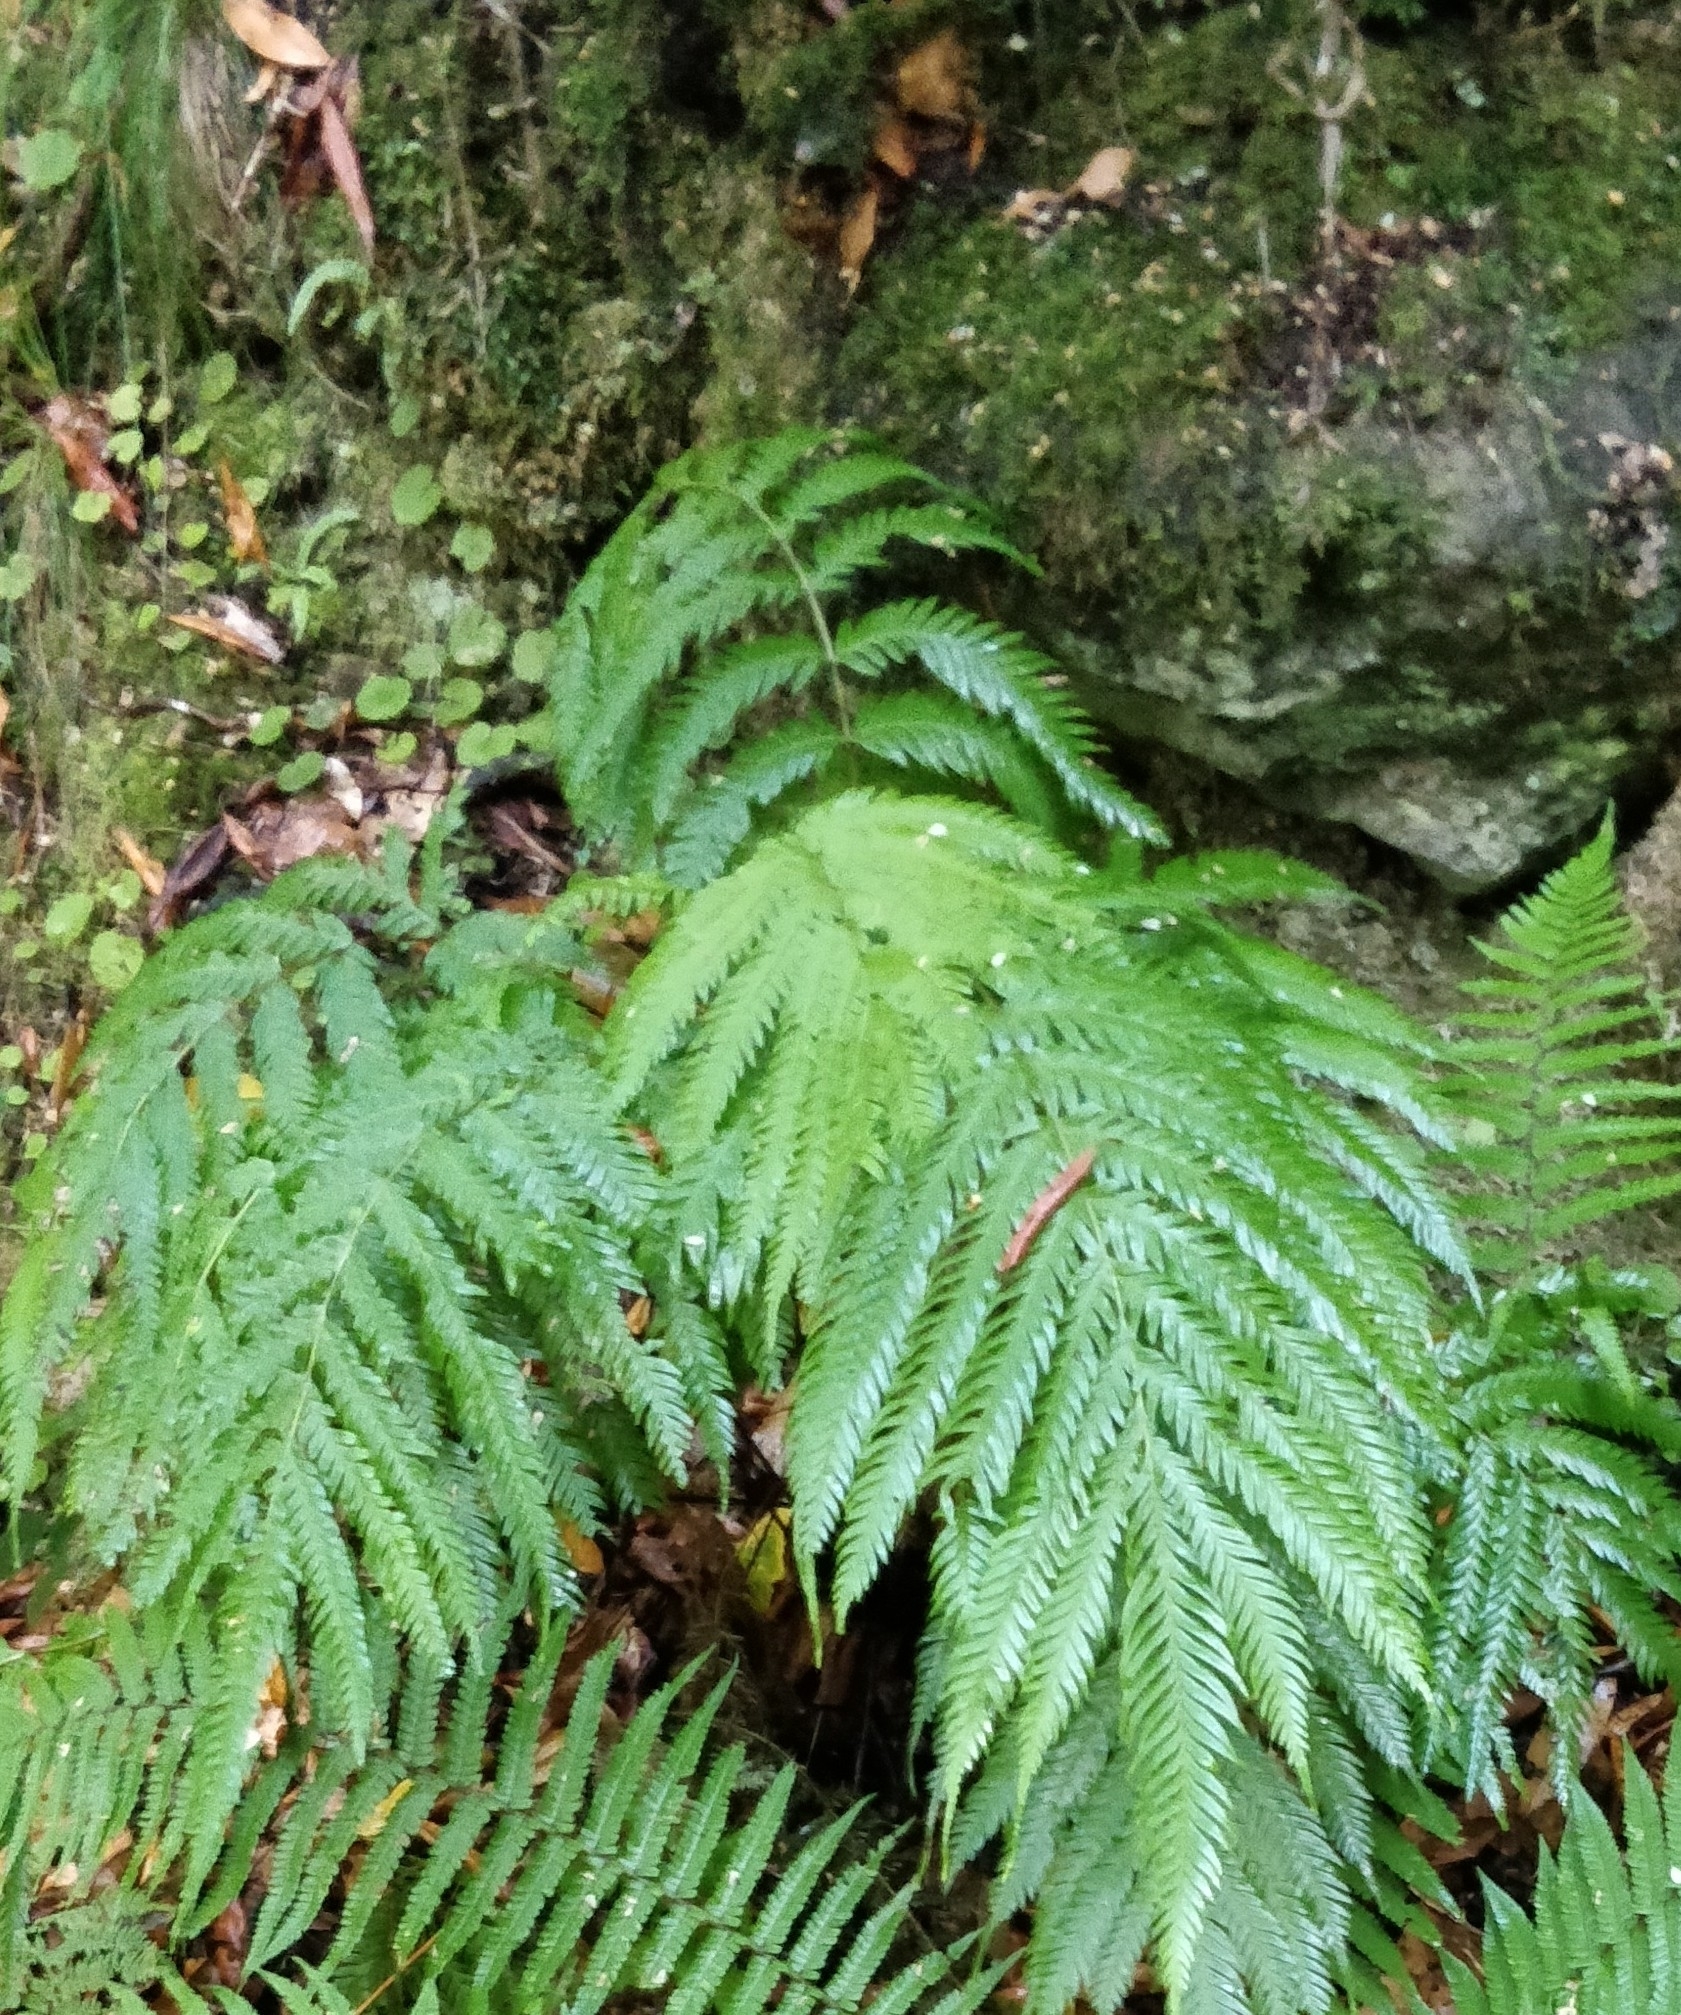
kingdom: Plantae
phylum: Tracheophyta
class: Polypodiopsida
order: Polypodiales
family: Pteridaceae
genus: Pteris
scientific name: Pteris incompleta
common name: Laurisilva brake
